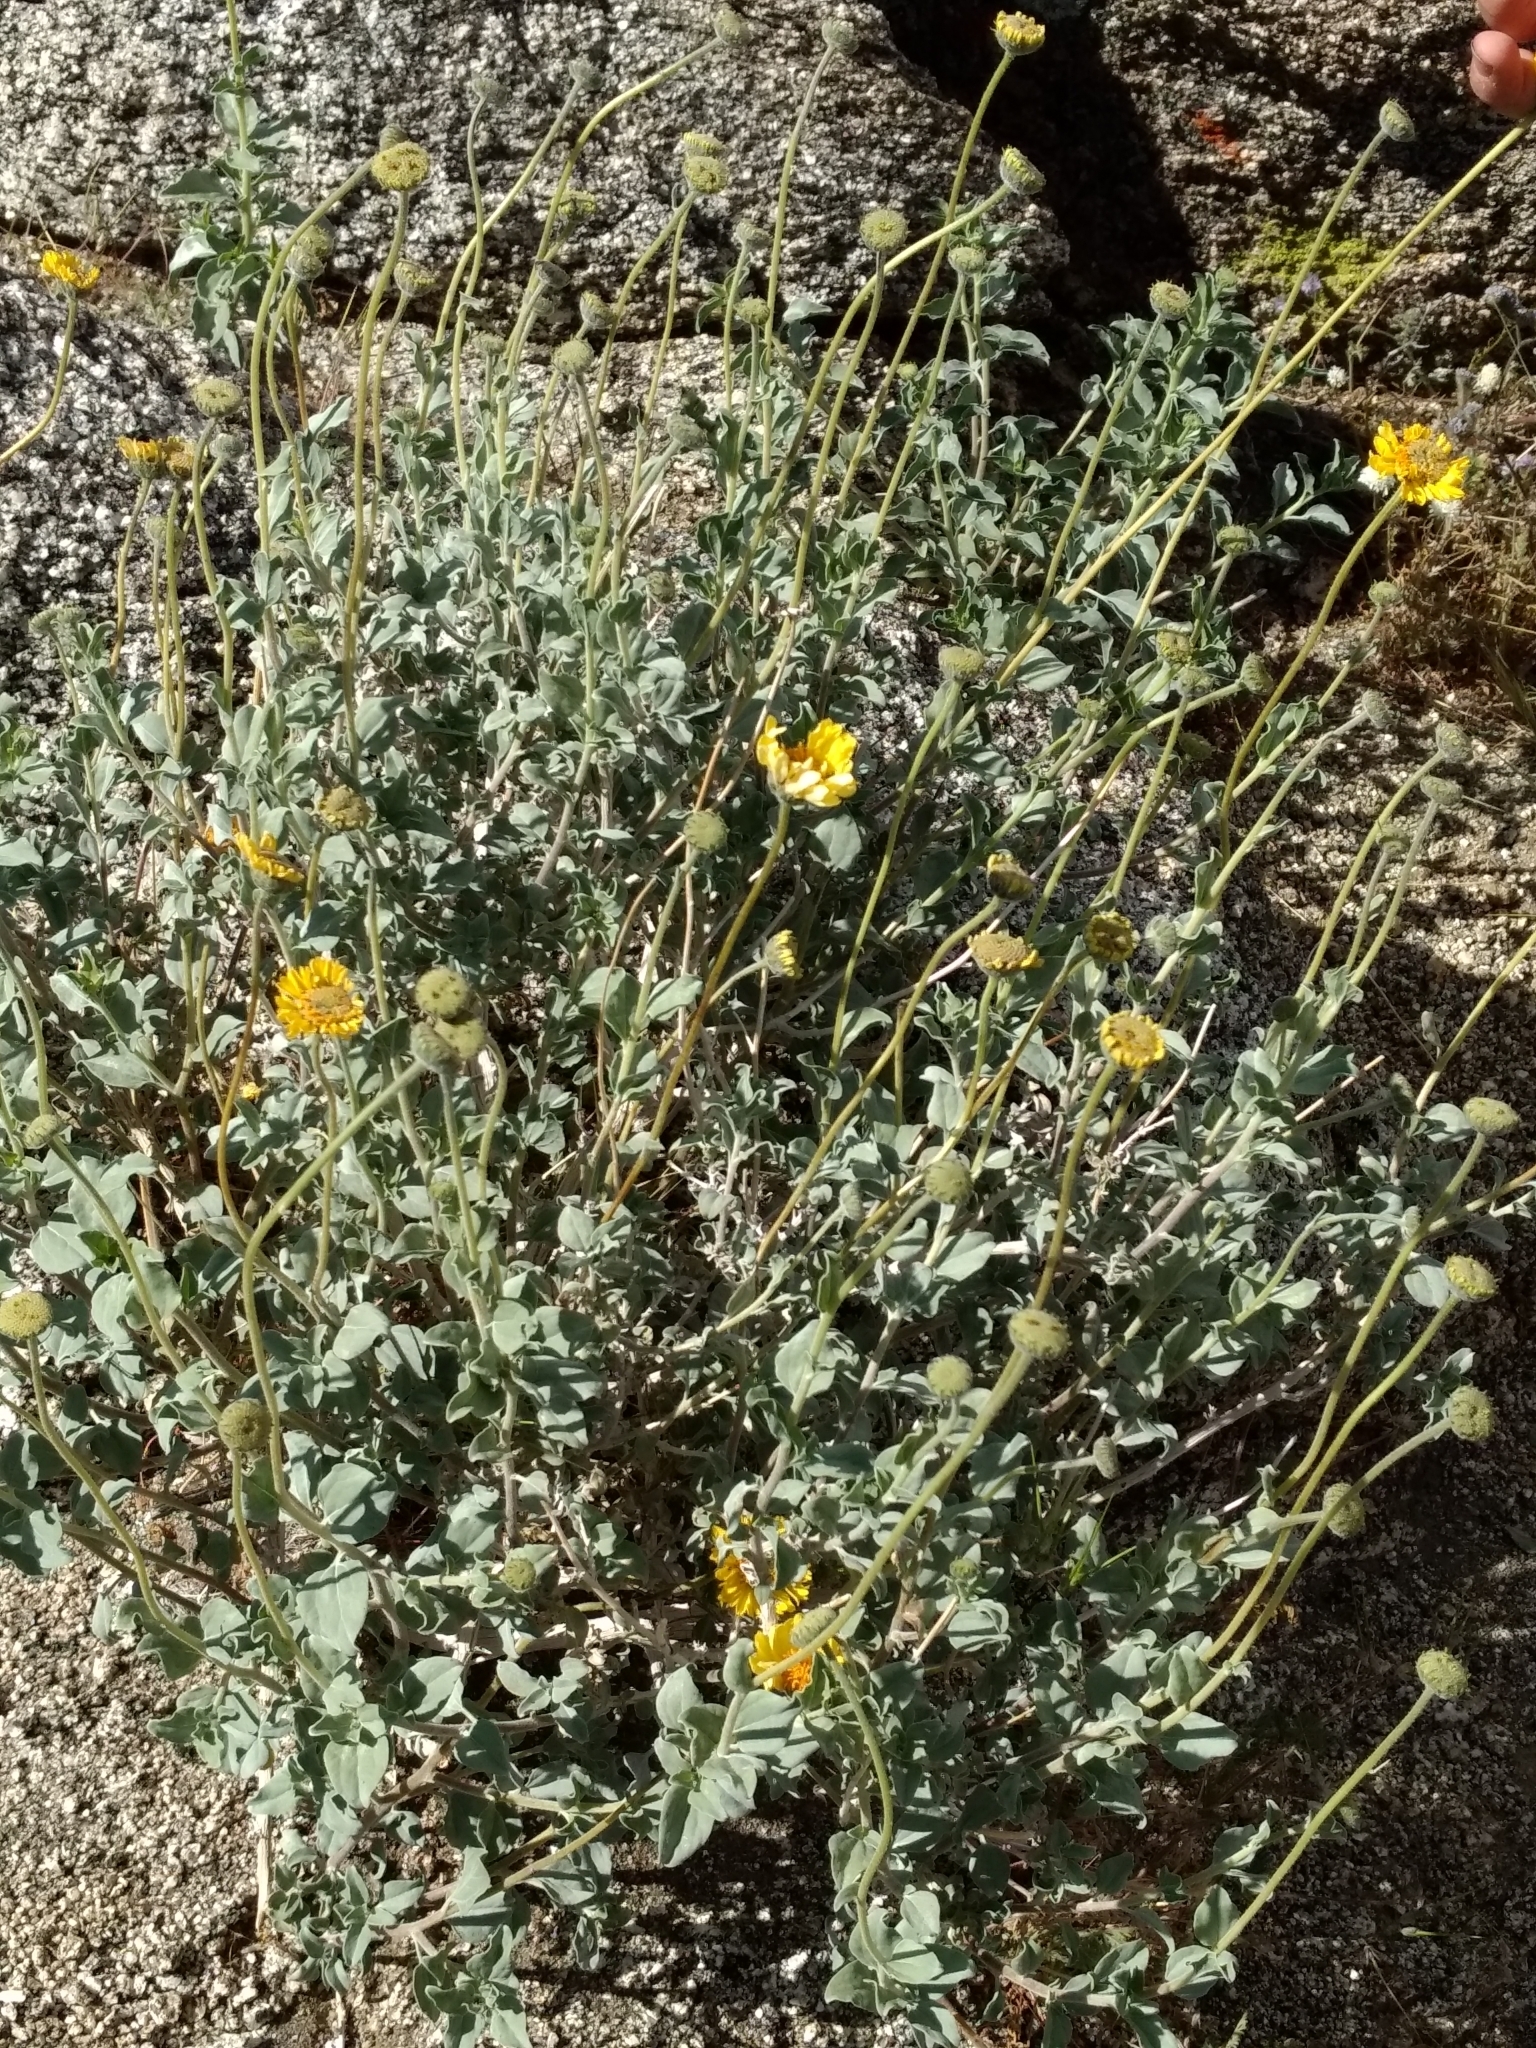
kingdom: Plantae
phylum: Tracheophyta
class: Magnoliopsida
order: Asterales
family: Asteraceae
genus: Encelia
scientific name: Encelia actoni
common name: Acton encelia
